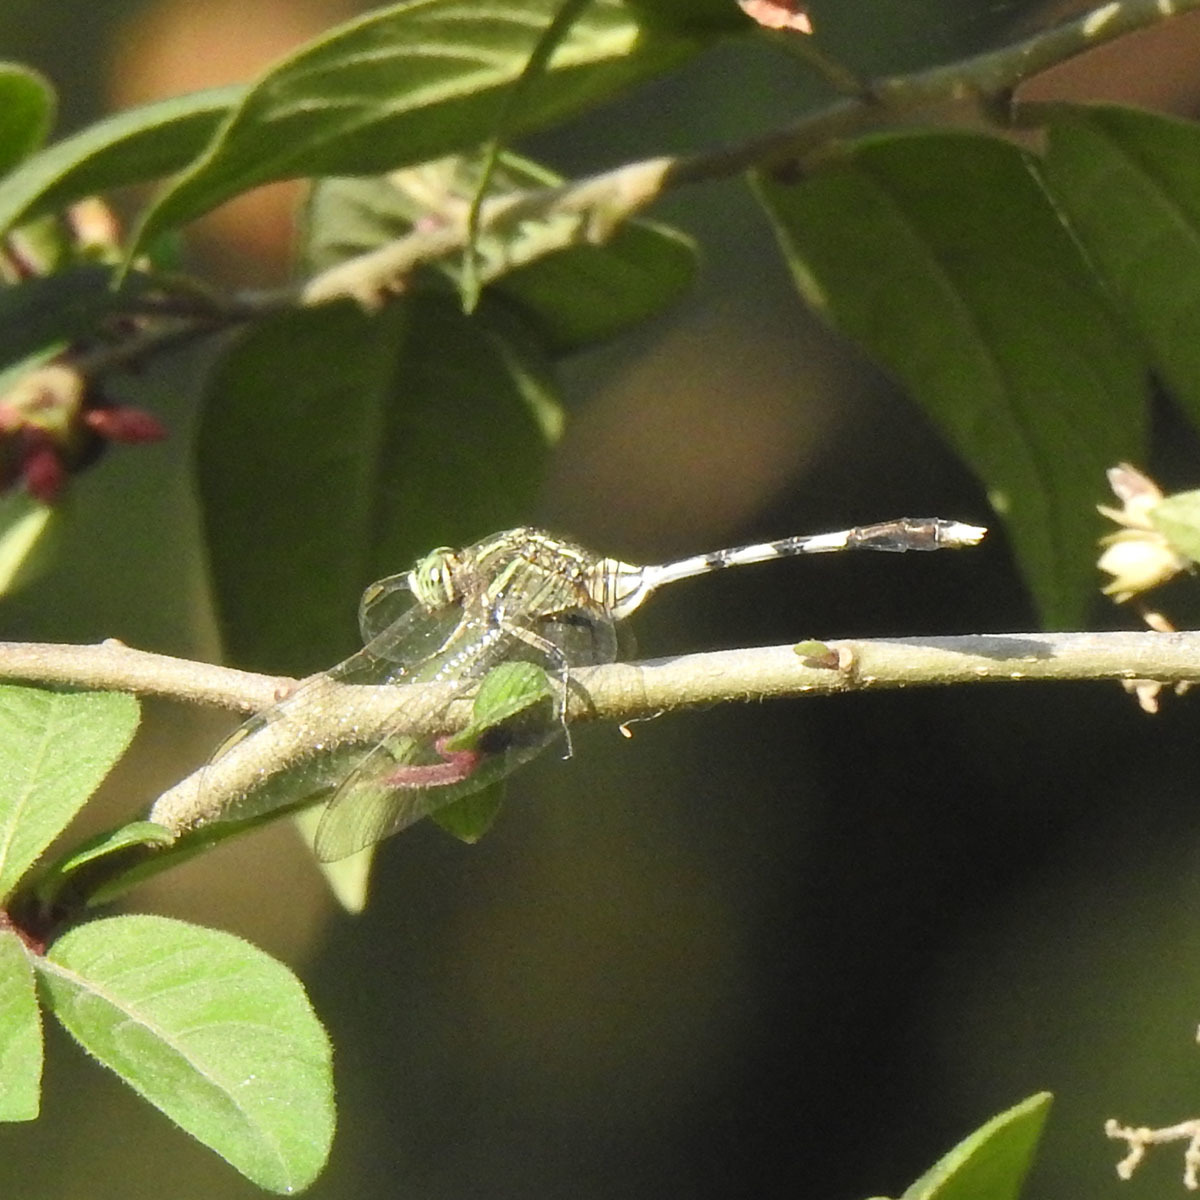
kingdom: Animalia
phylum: Arthropoda
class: Insecta
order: Odonata
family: Libellulidae
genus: Orthetrum
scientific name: Orthetrum sabina
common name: Slender skimmer
